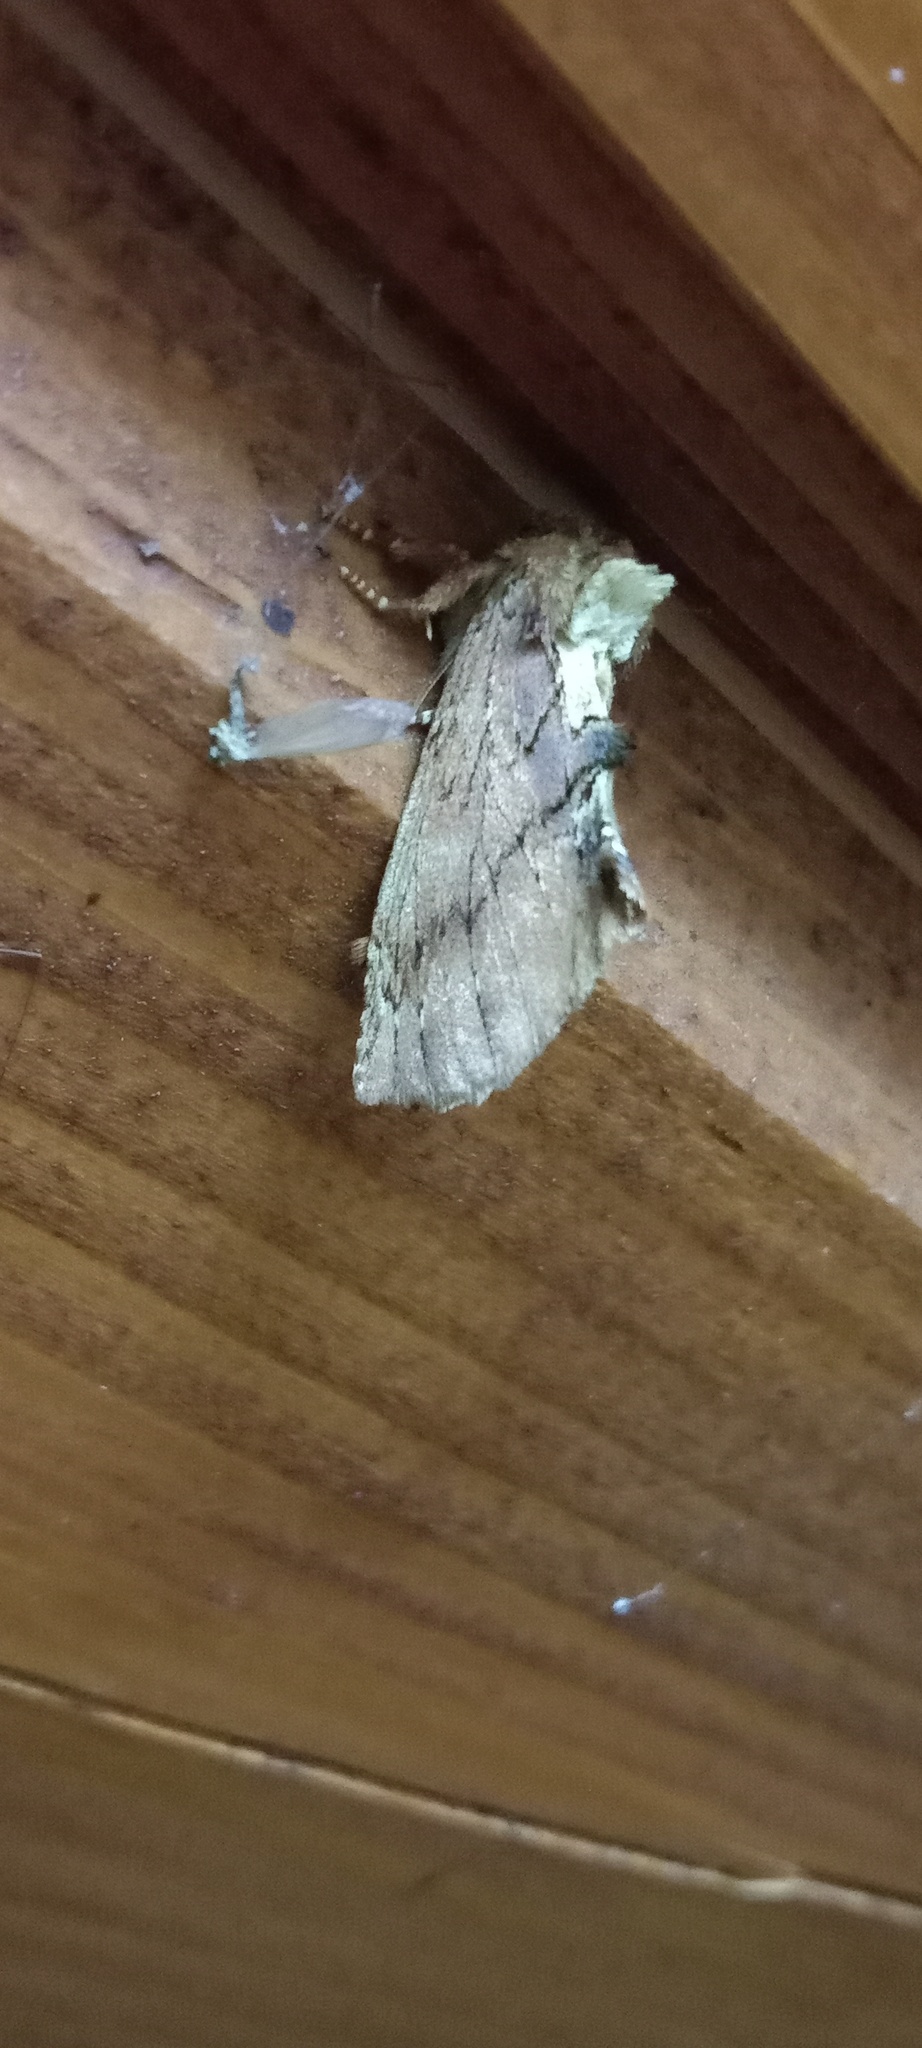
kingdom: Animalia
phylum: Arthropoda
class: Insecta
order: Lepidoptera
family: Notodontidae
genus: Ptilodon
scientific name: Ptilodon capucina
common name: Coxcomb prominent
